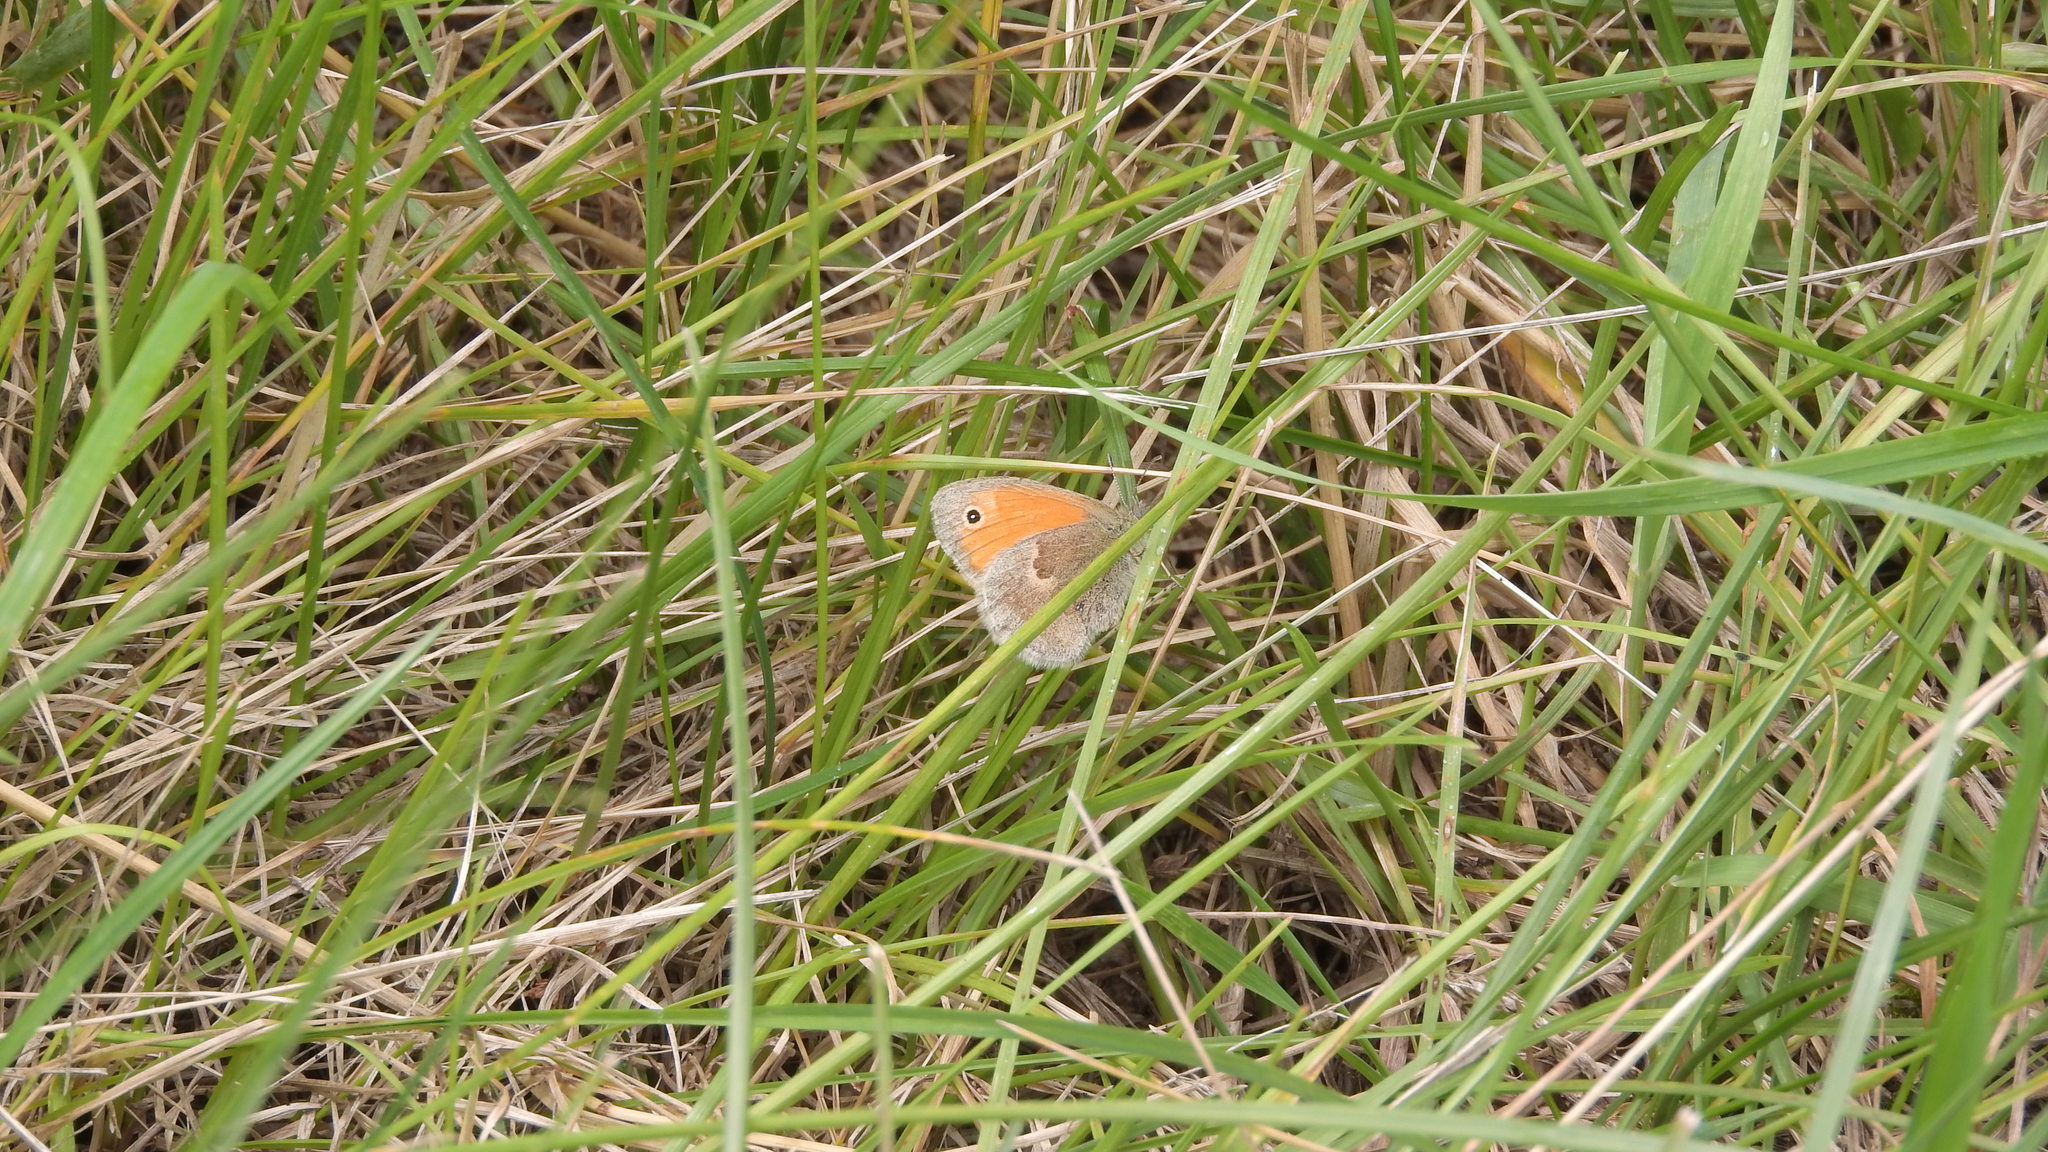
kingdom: Animalia
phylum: Arthropoda
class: Insecta
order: Lepidoptera
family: Nymphalidae
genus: Coenonympha
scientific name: Coenonympha pamphilus
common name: Small heath
